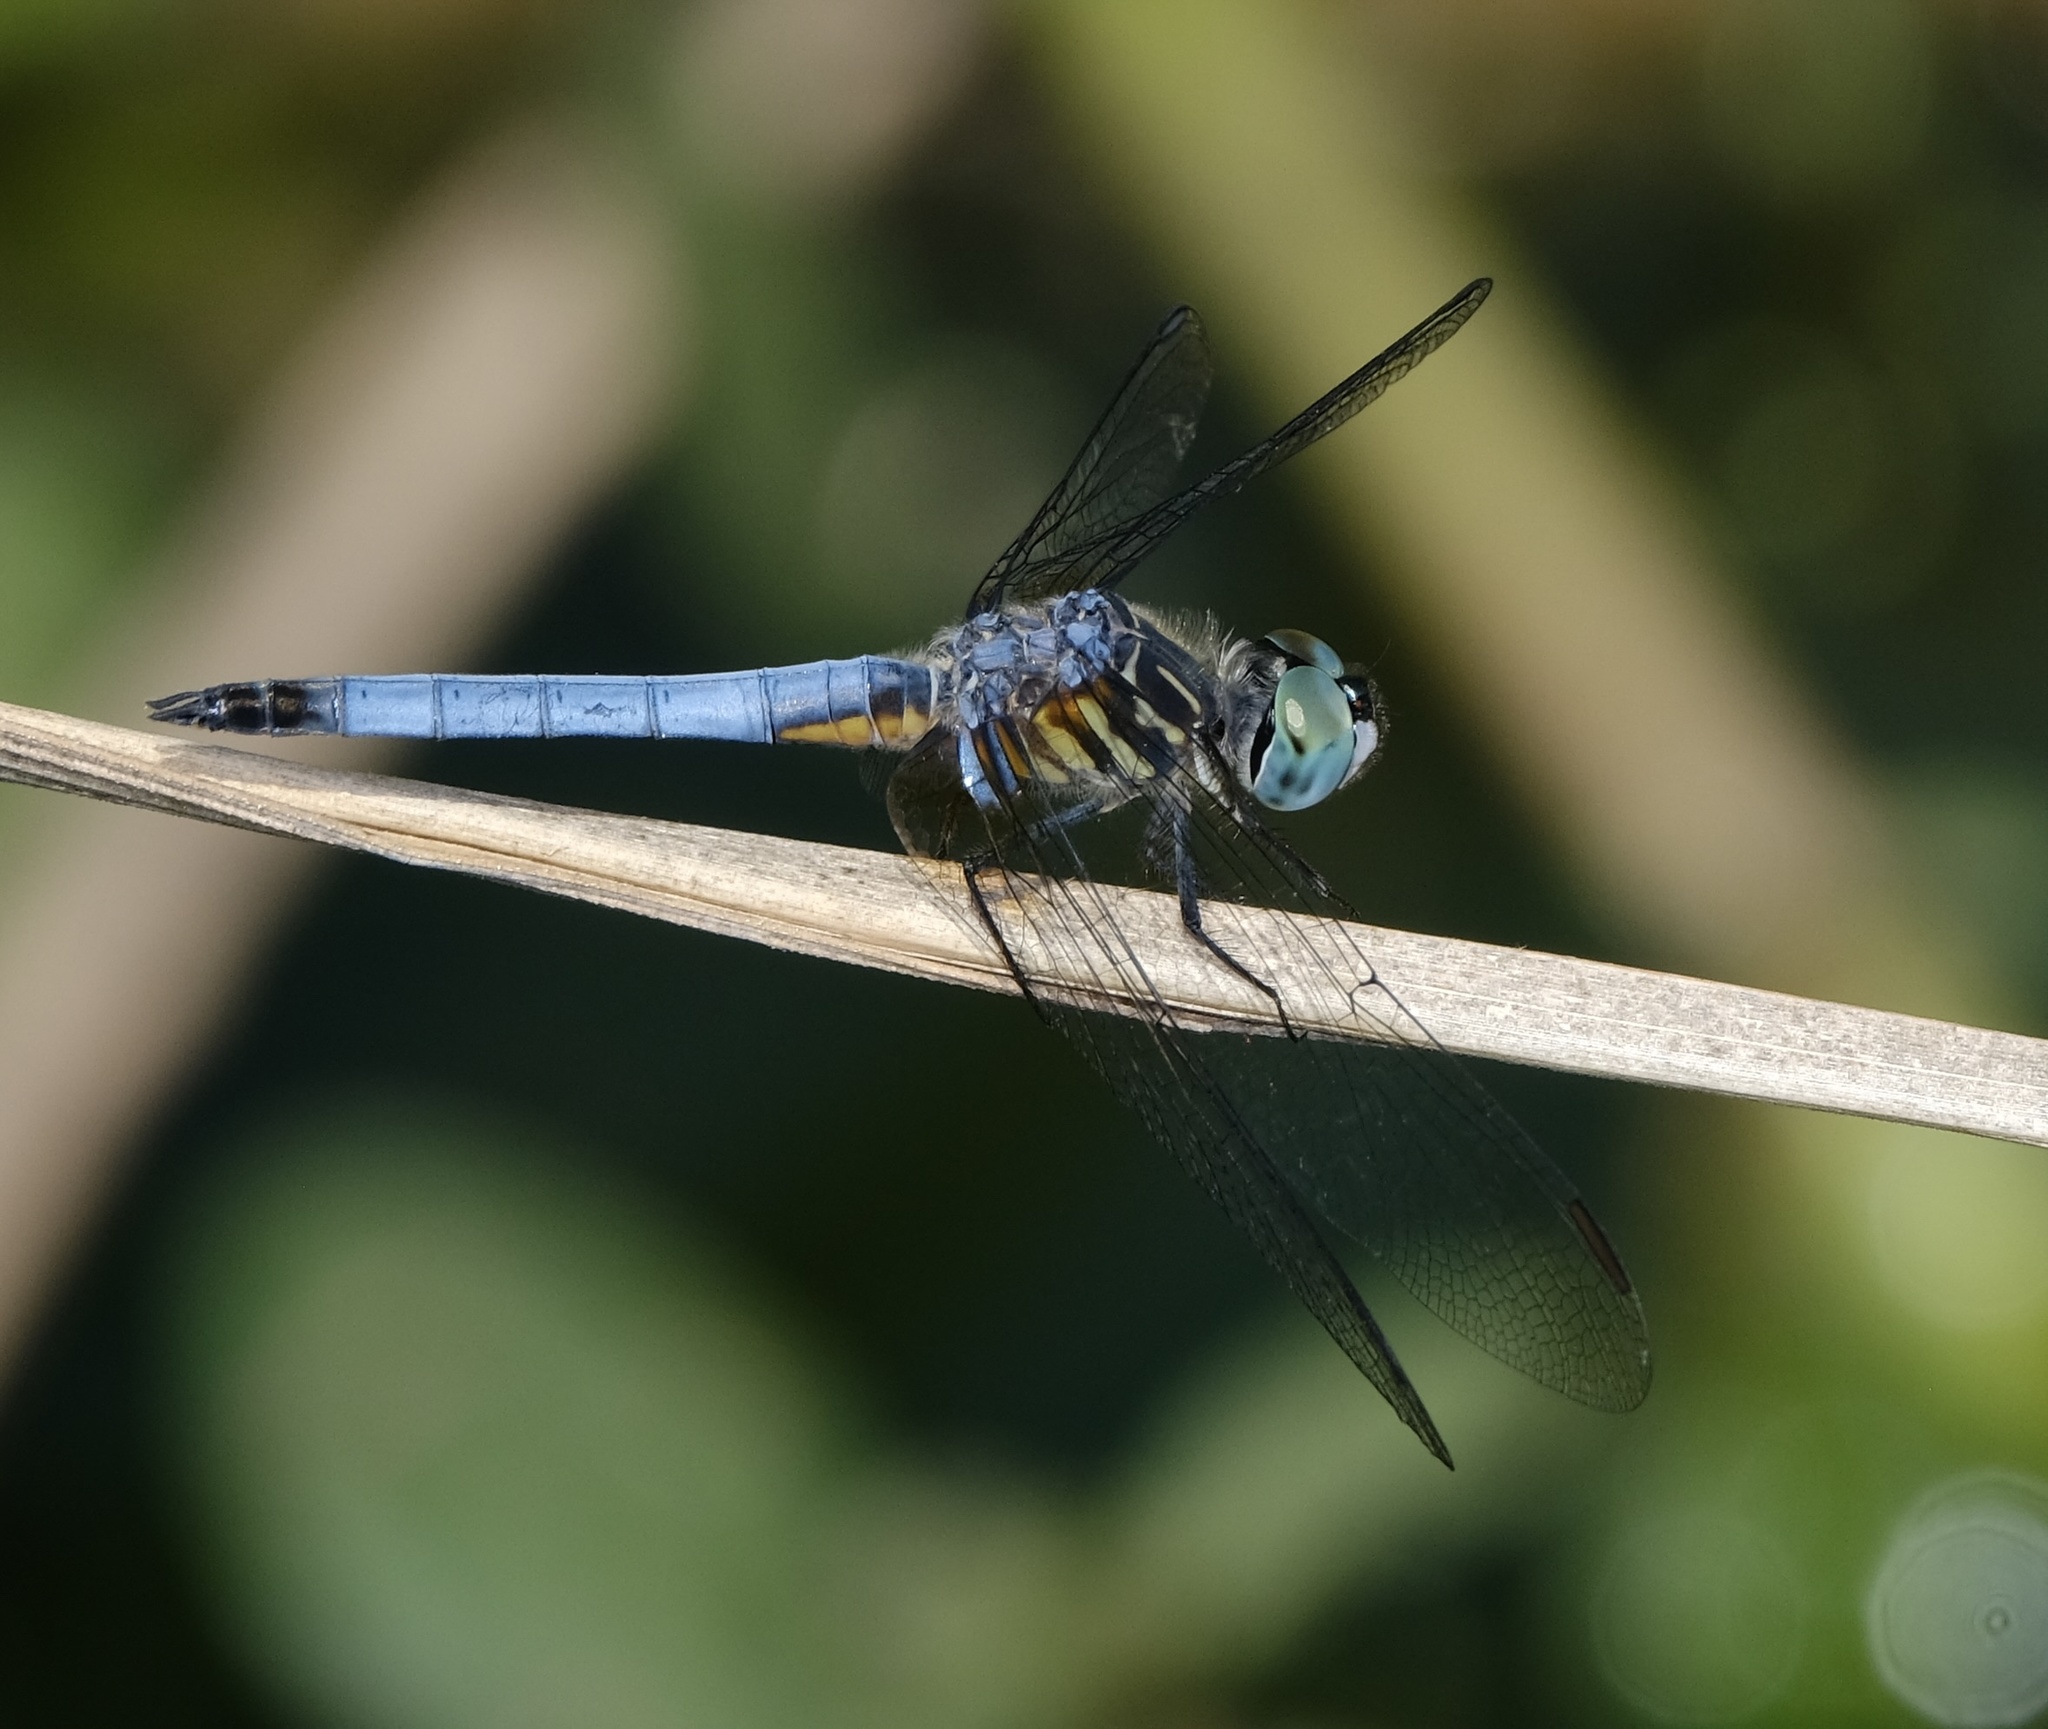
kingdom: Animalia
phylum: Arthropoda
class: Insecta
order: Odonata
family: Libellulidae
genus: Pachydiplax
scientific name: Pachydiplax longipennis
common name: Blue dasher
